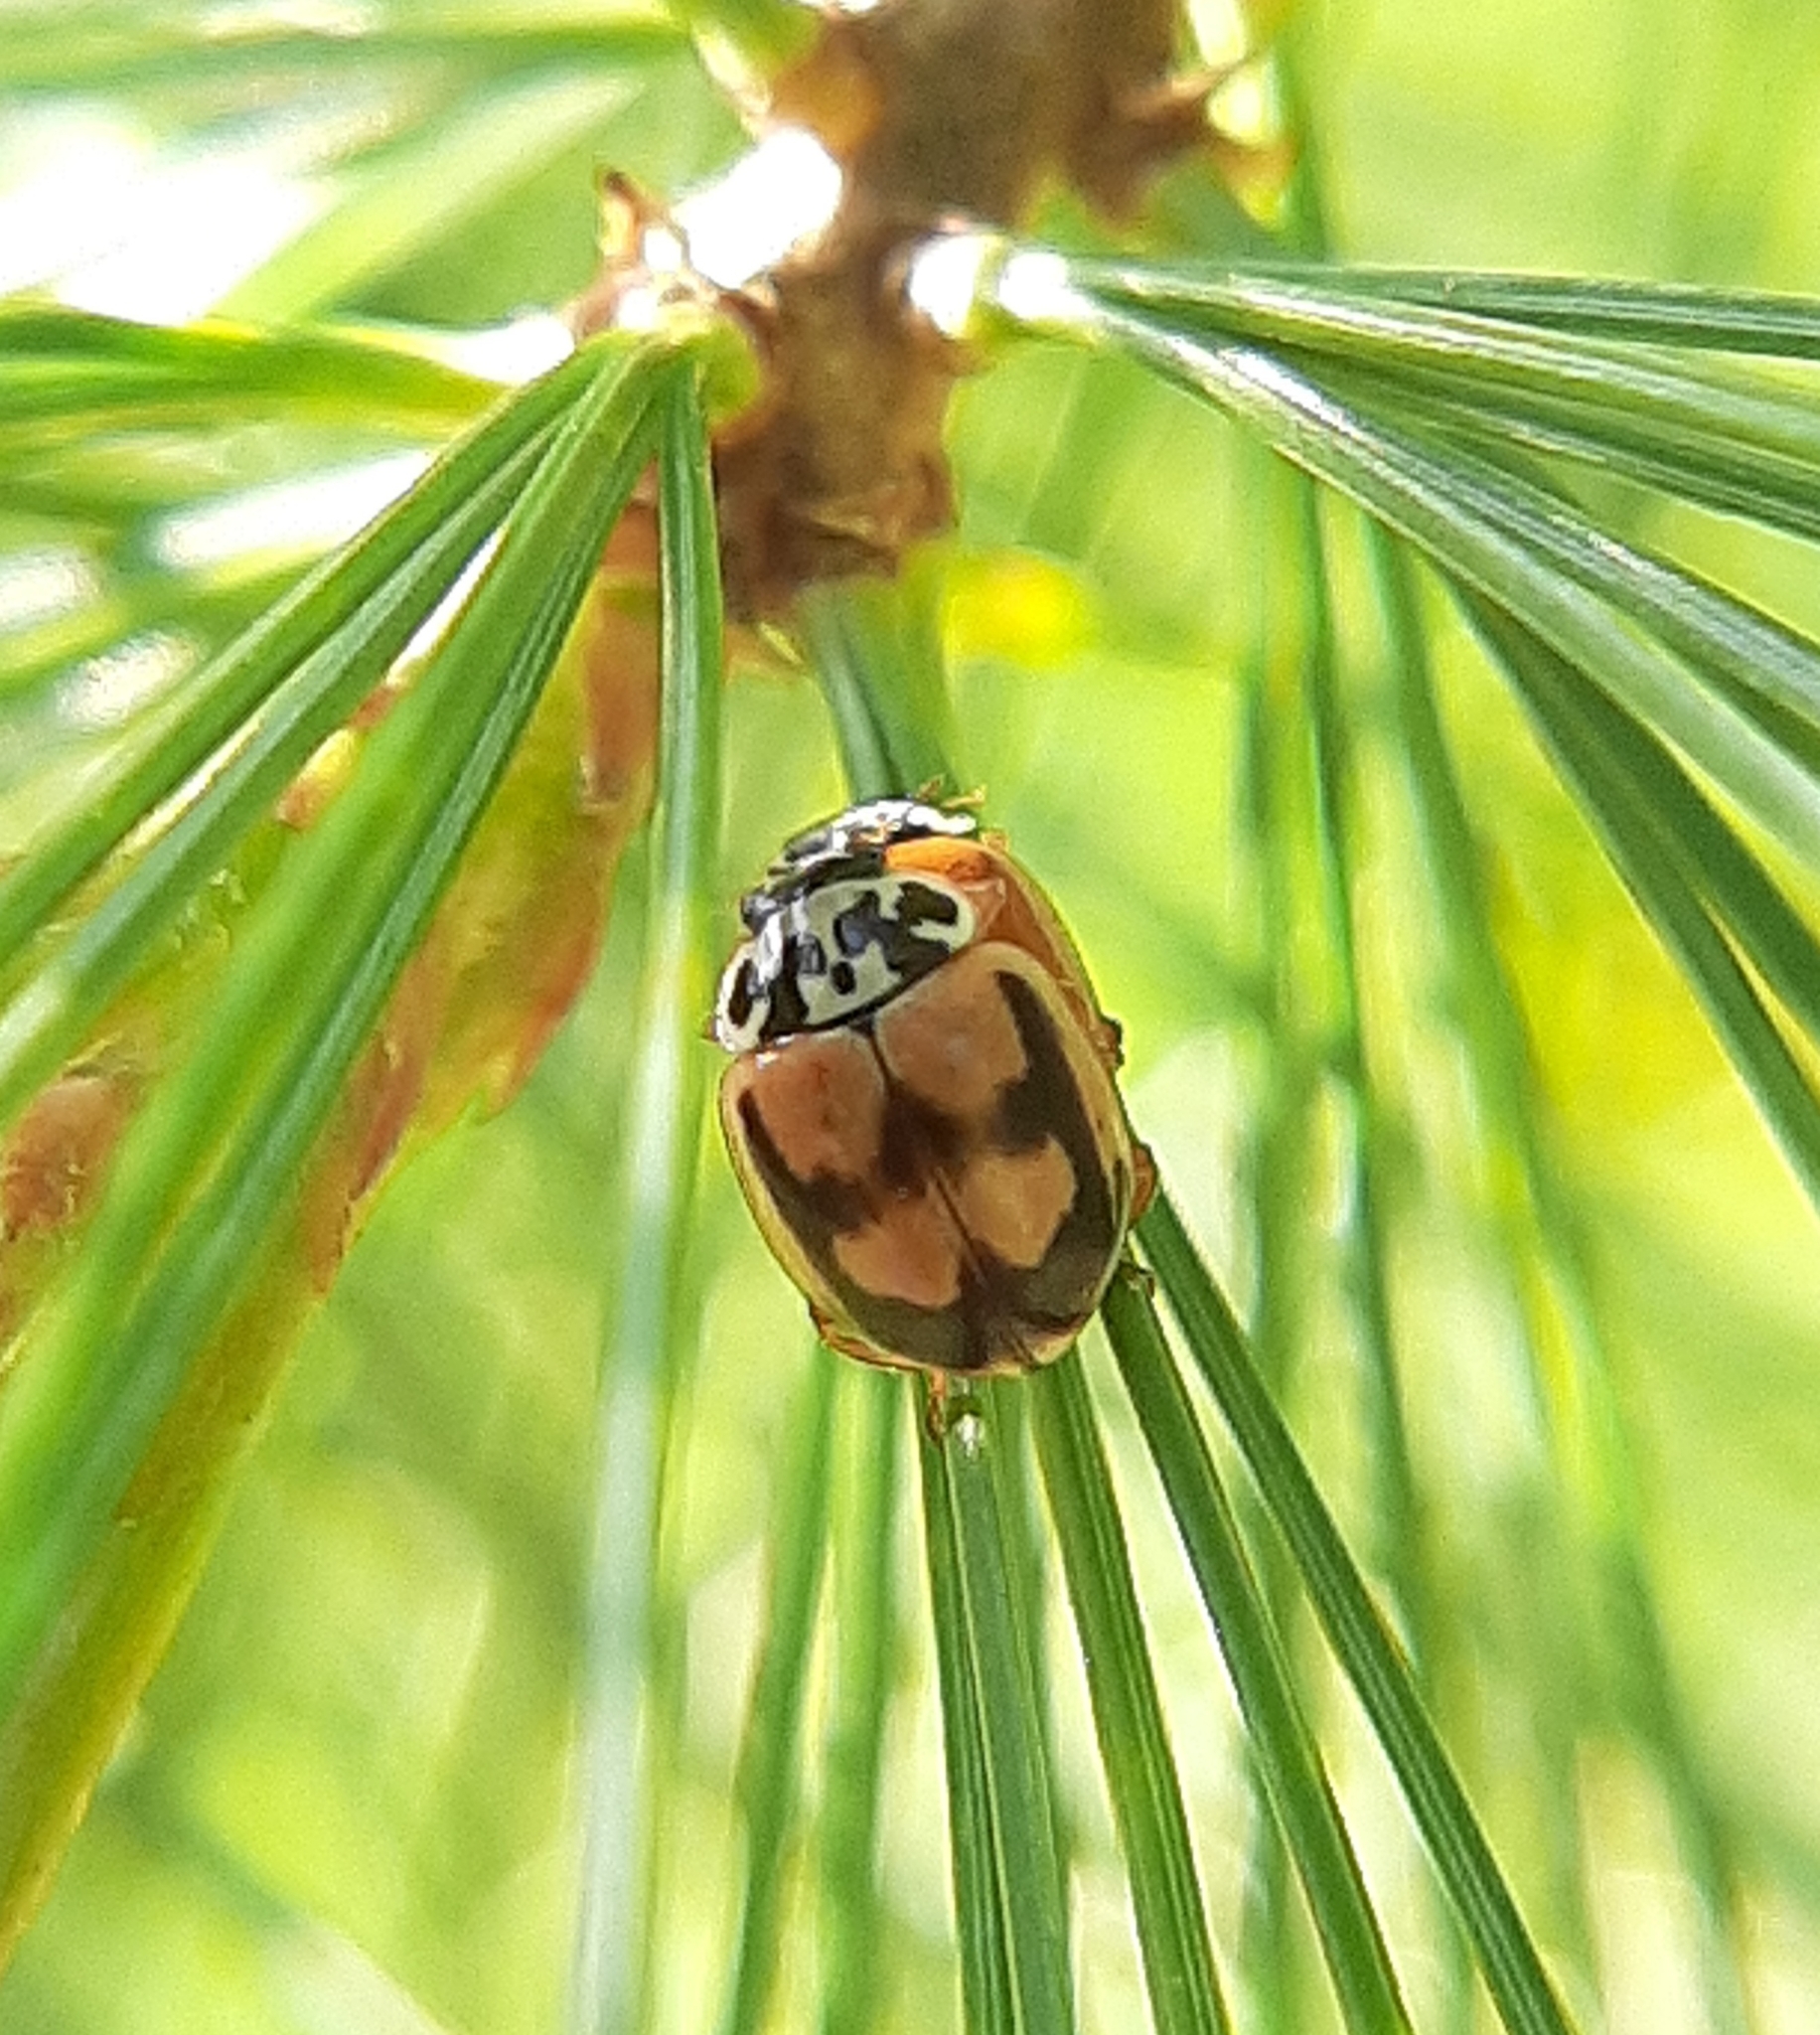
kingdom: Animalia
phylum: Arthropoda
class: Insecta
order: Coleoptera
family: Coccinellidae
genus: Mulsantina
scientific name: Mulsantina picta
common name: Painted ladybird
